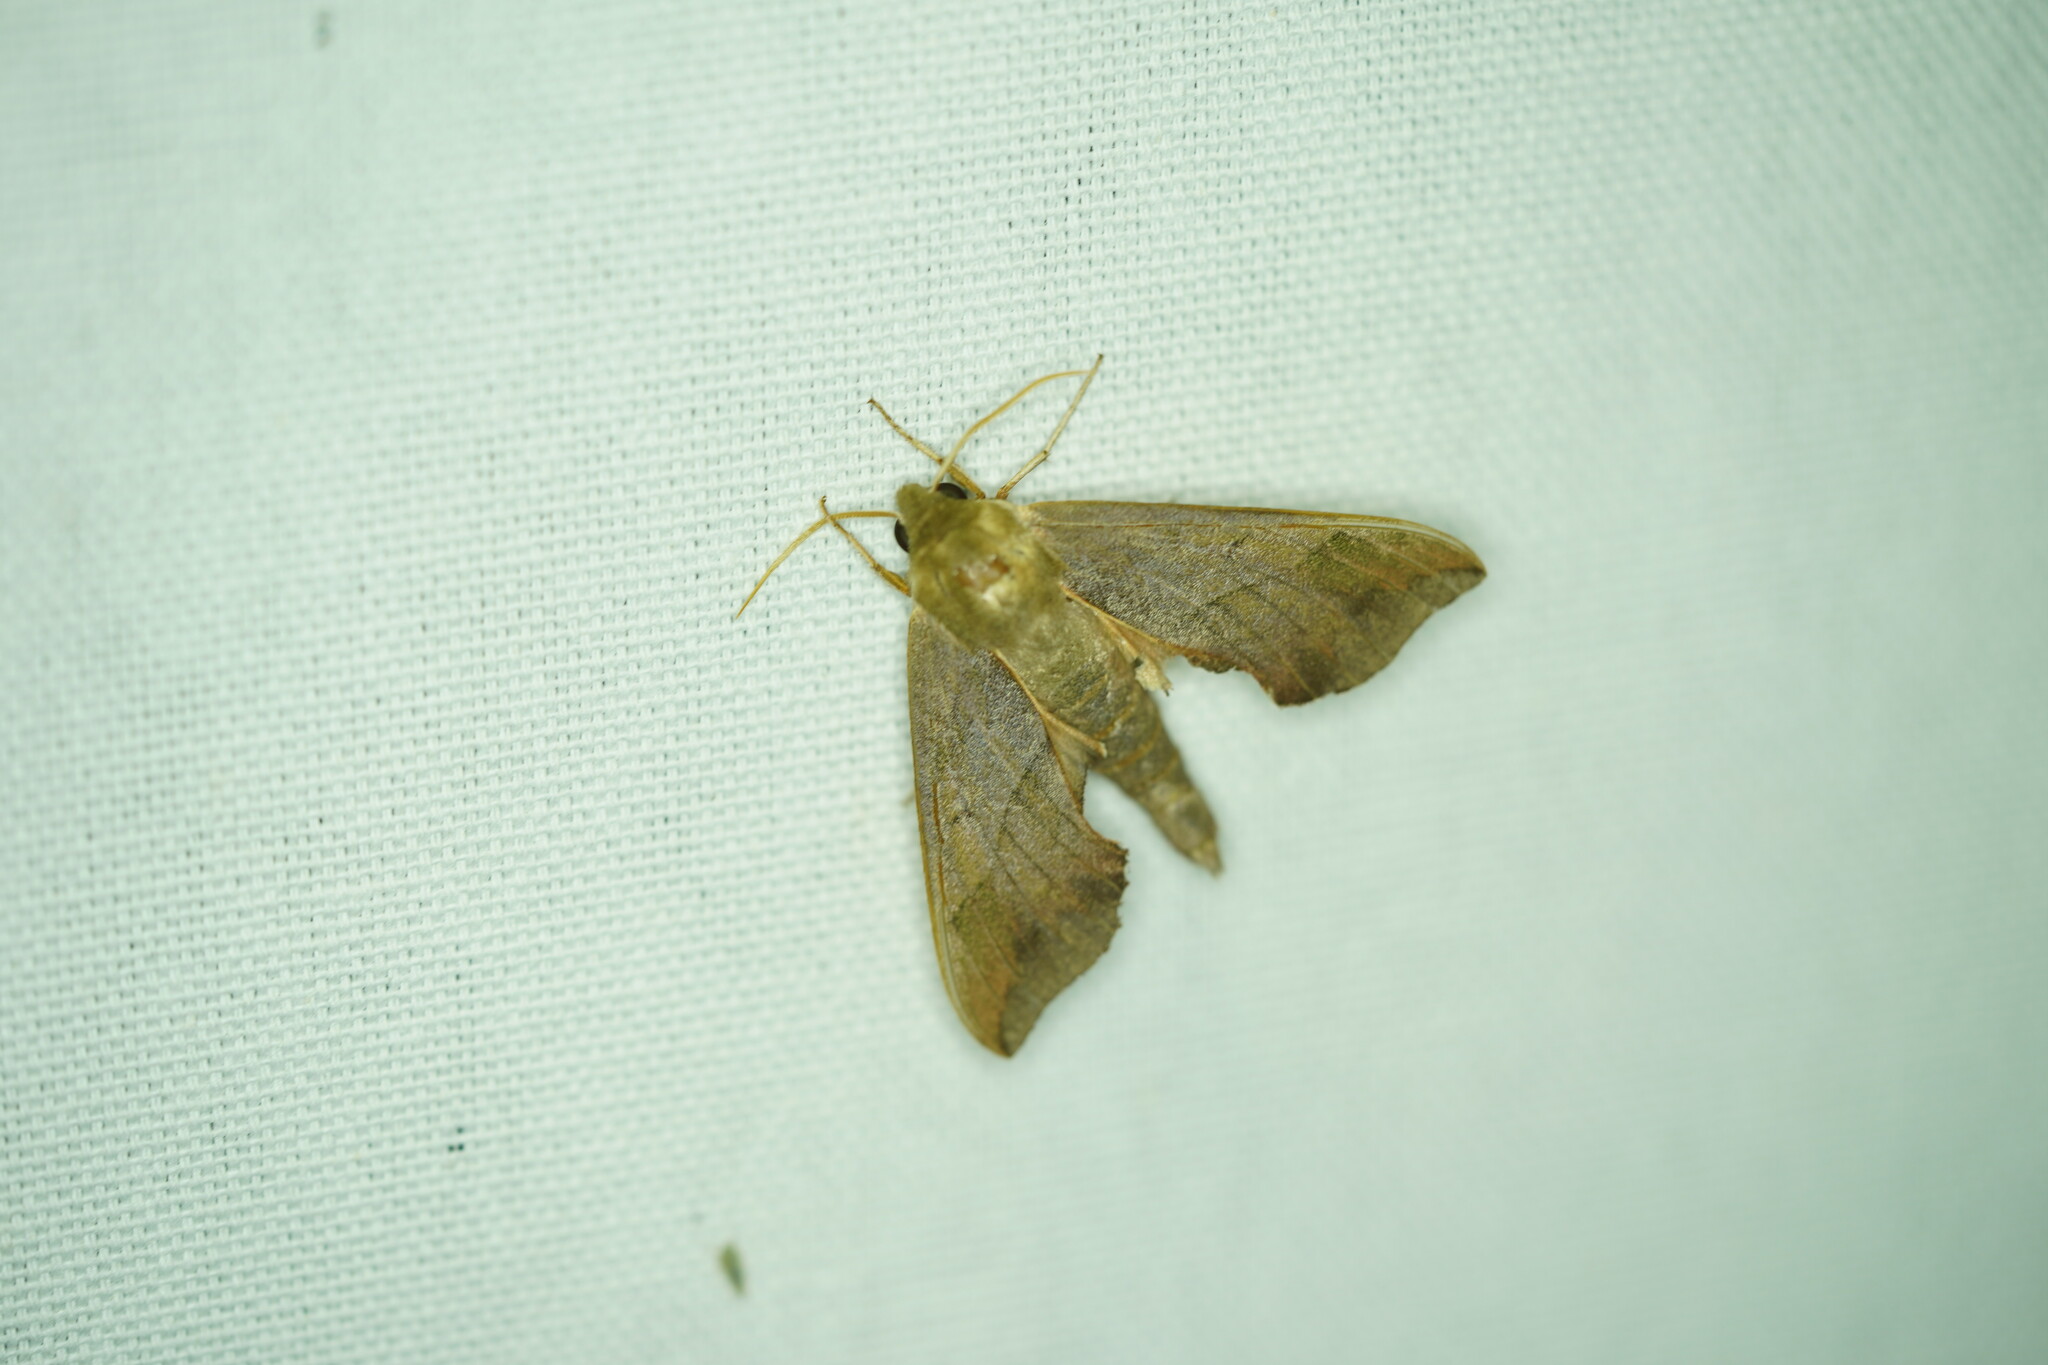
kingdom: Animalia
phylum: Arthropoda
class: Insecta
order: Lepidoptera
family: Sphingidae
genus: Darapsa
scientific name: Darapsa myron
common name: Hog sphinx
